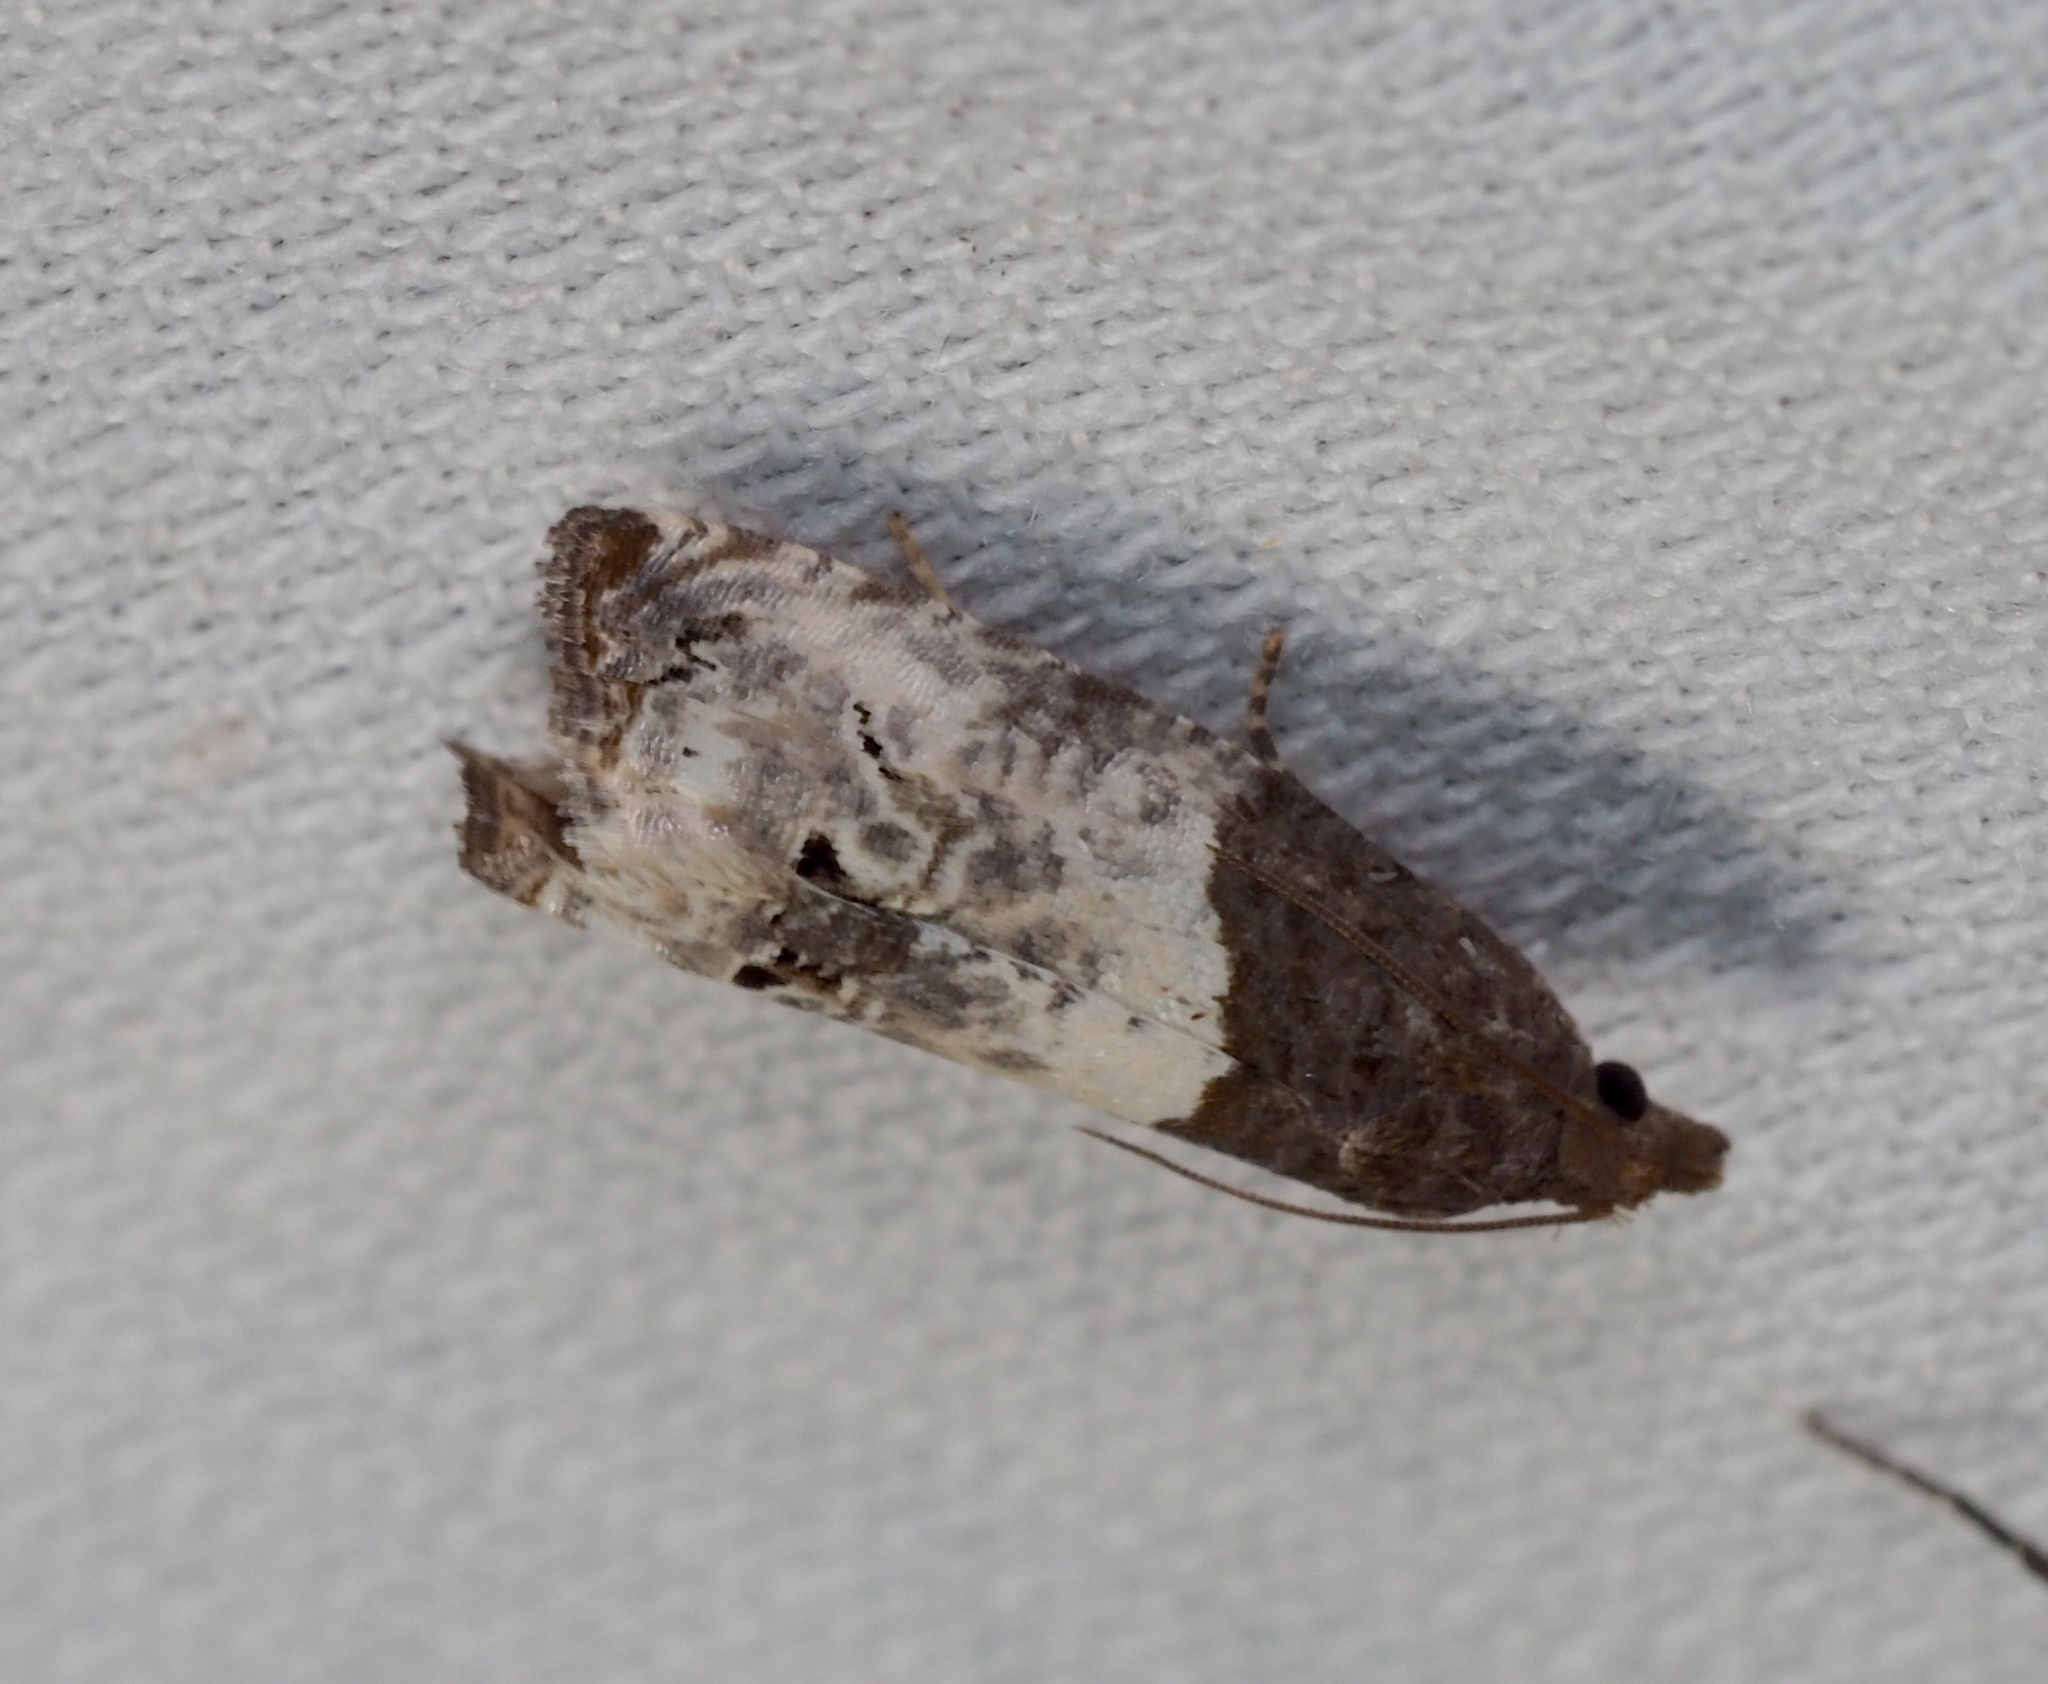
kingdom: Animalia
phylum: Arthropoda
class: Insecta
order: Lepidoptera
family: Tortricidae
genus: Epiblema
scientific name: Epiblema aquana
